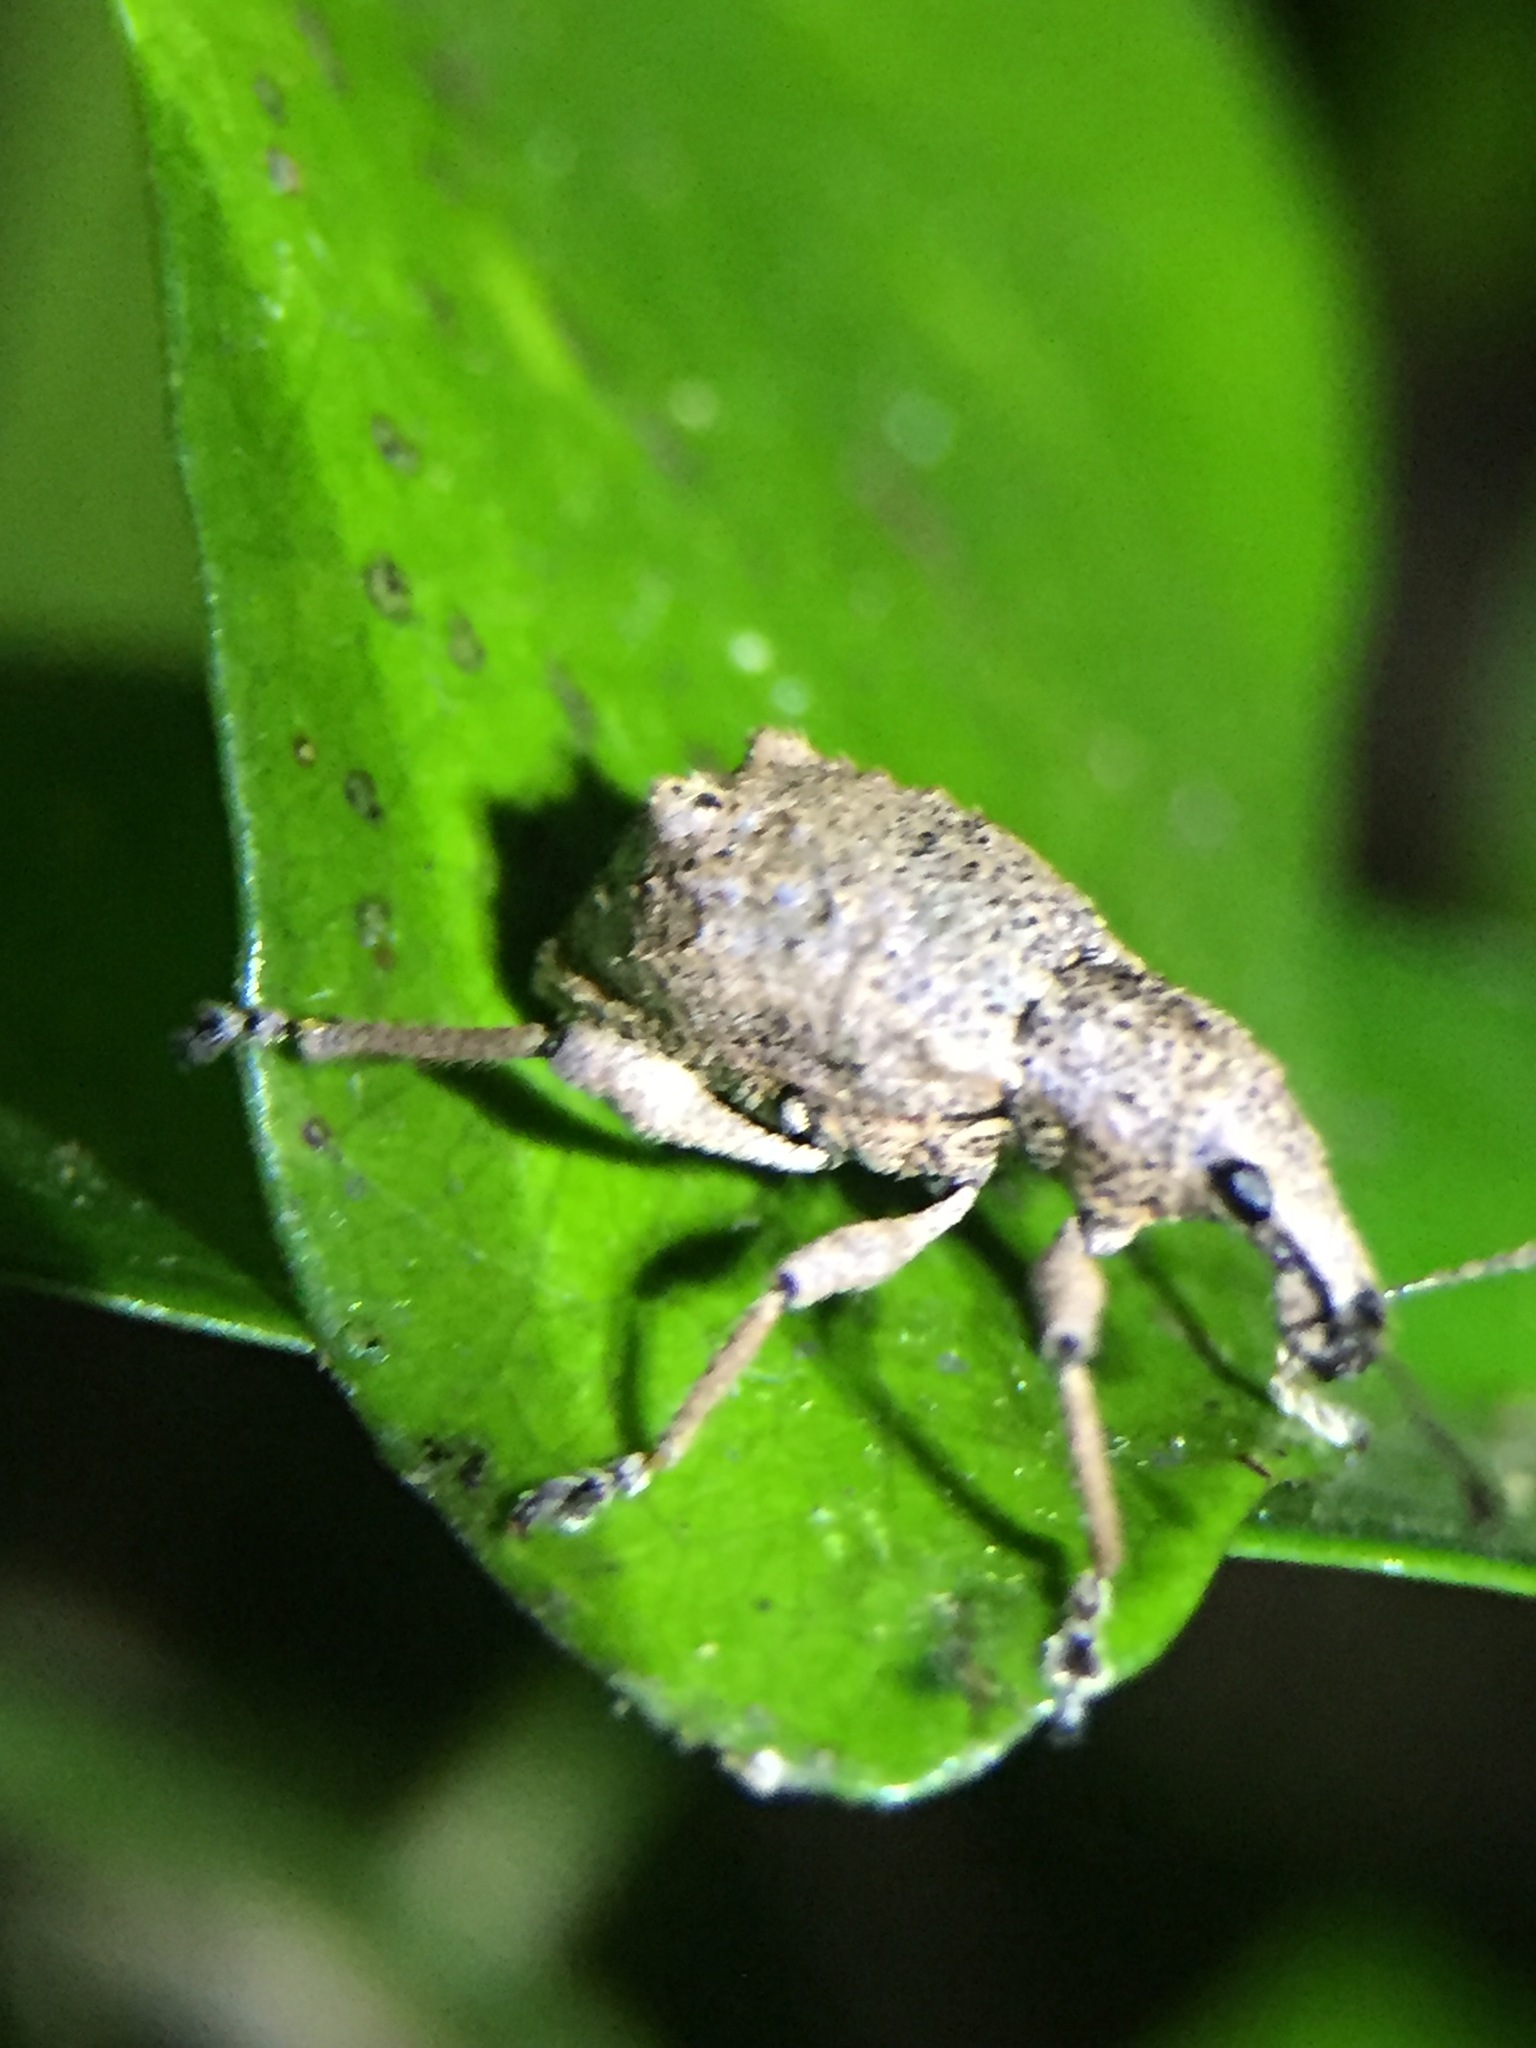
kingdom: Animalia
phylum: Arthropoda
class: Insecta
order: Coleoptera
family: Curculionidae
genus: Catoptes
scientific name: Catoptes binodis
